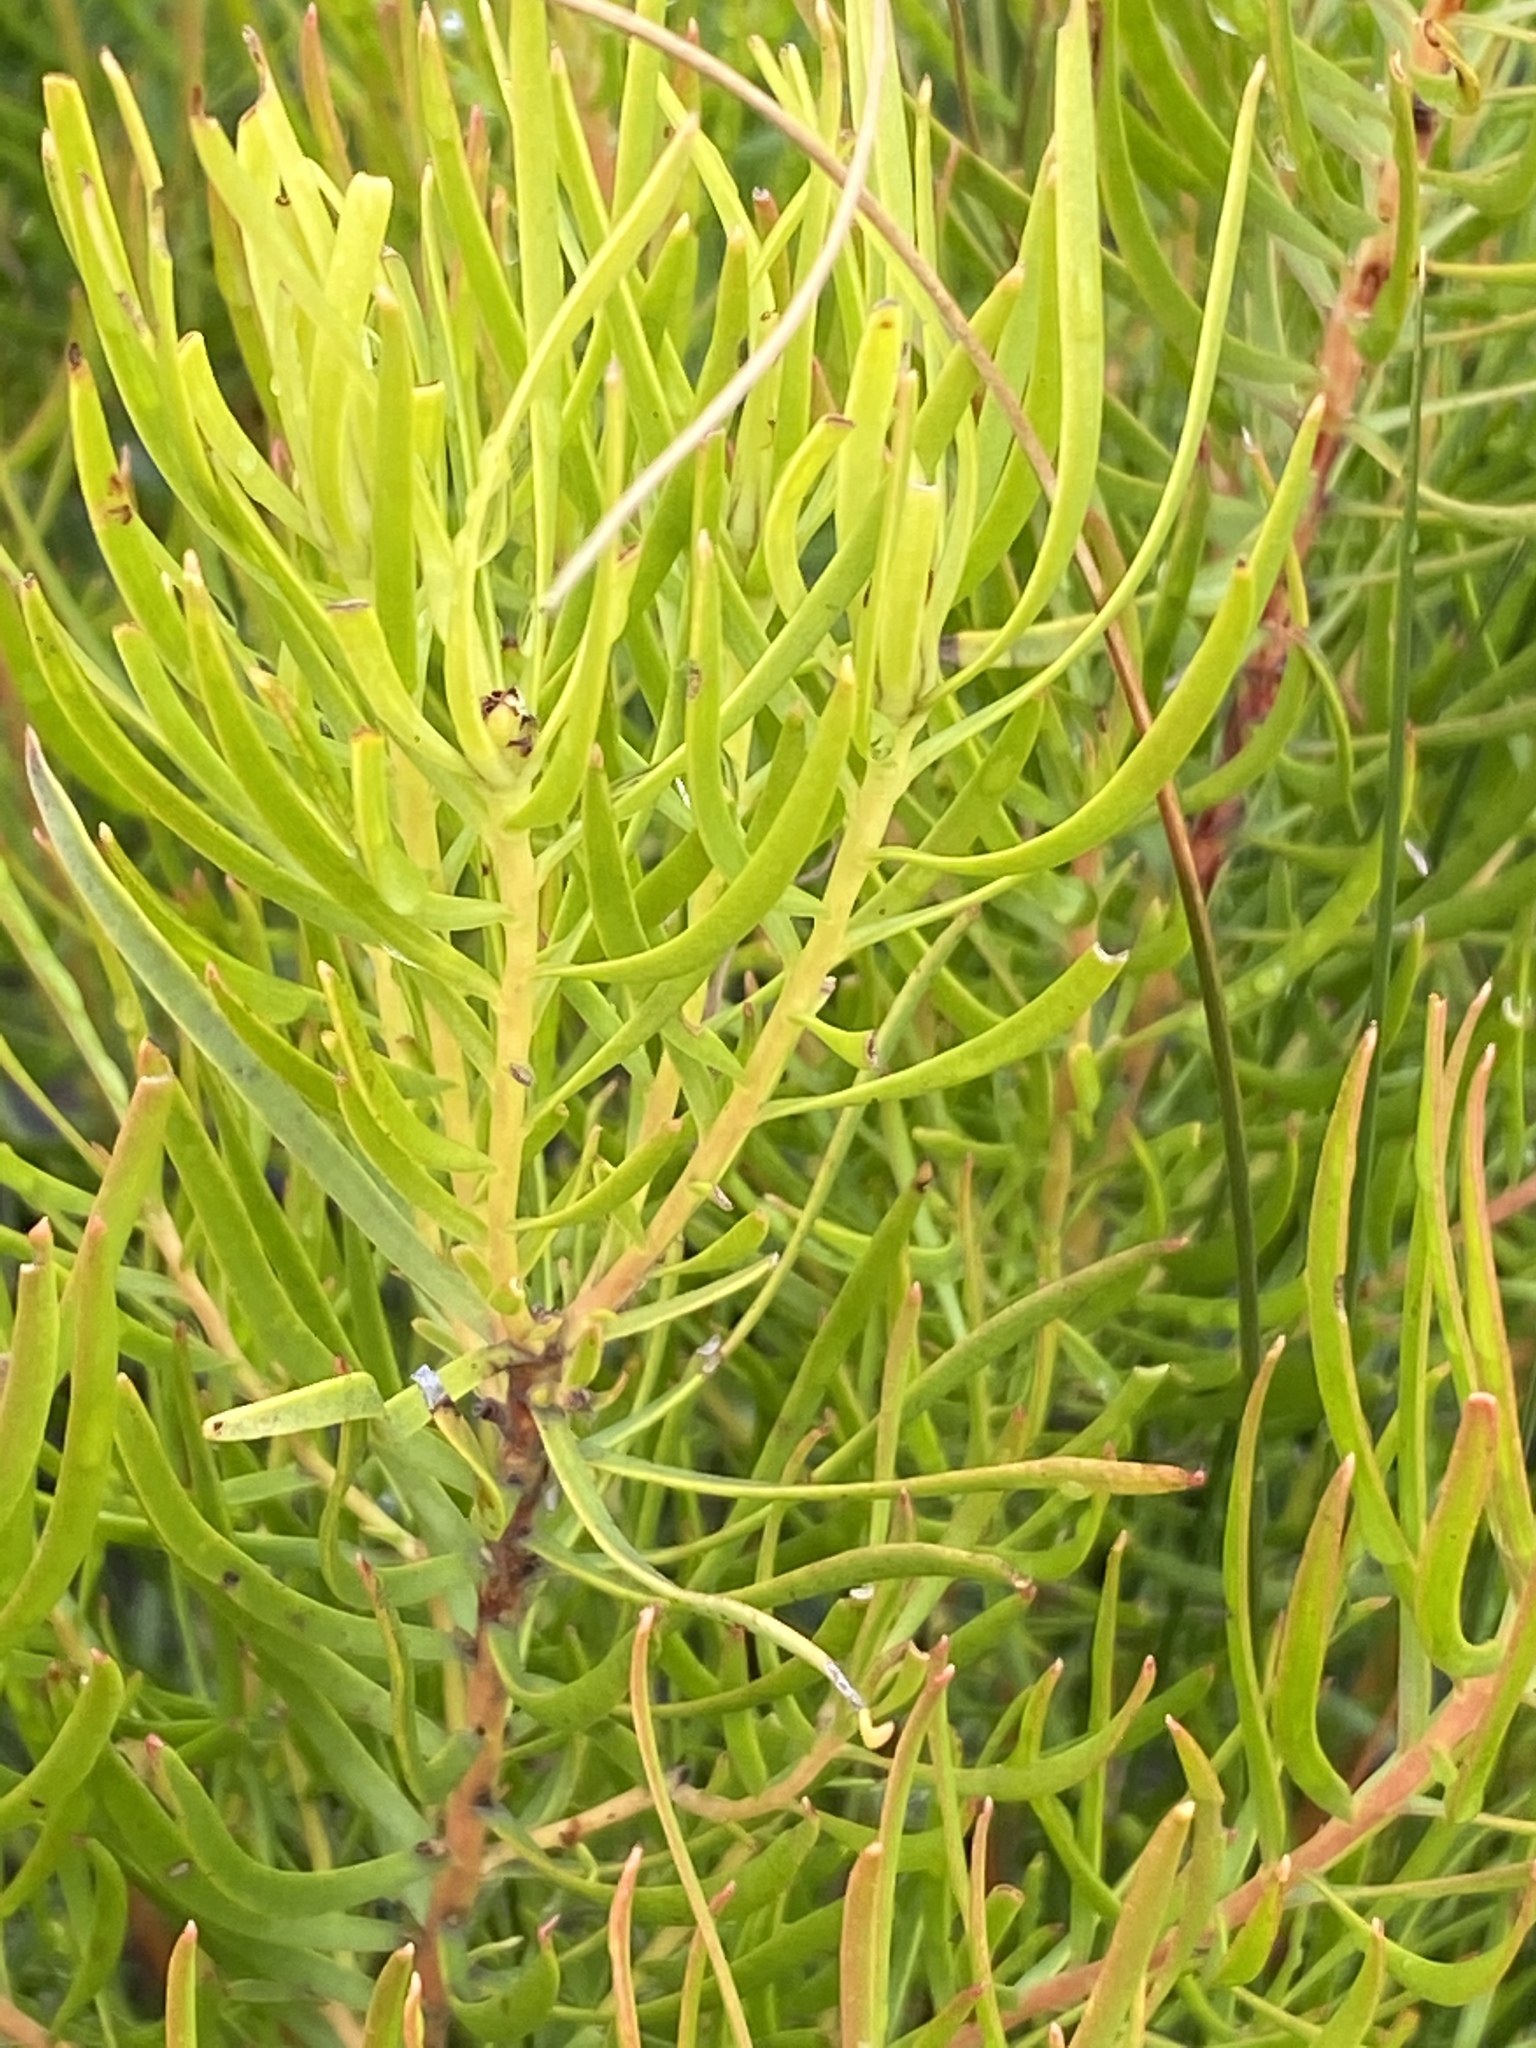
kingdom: Plantae
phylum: Tracheophyta
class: Magnoliopsida
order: Proteales
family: Proteaceae
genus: Leucadendron
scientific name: Leucadendron spissifolium
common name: Spear-leaf conebush
